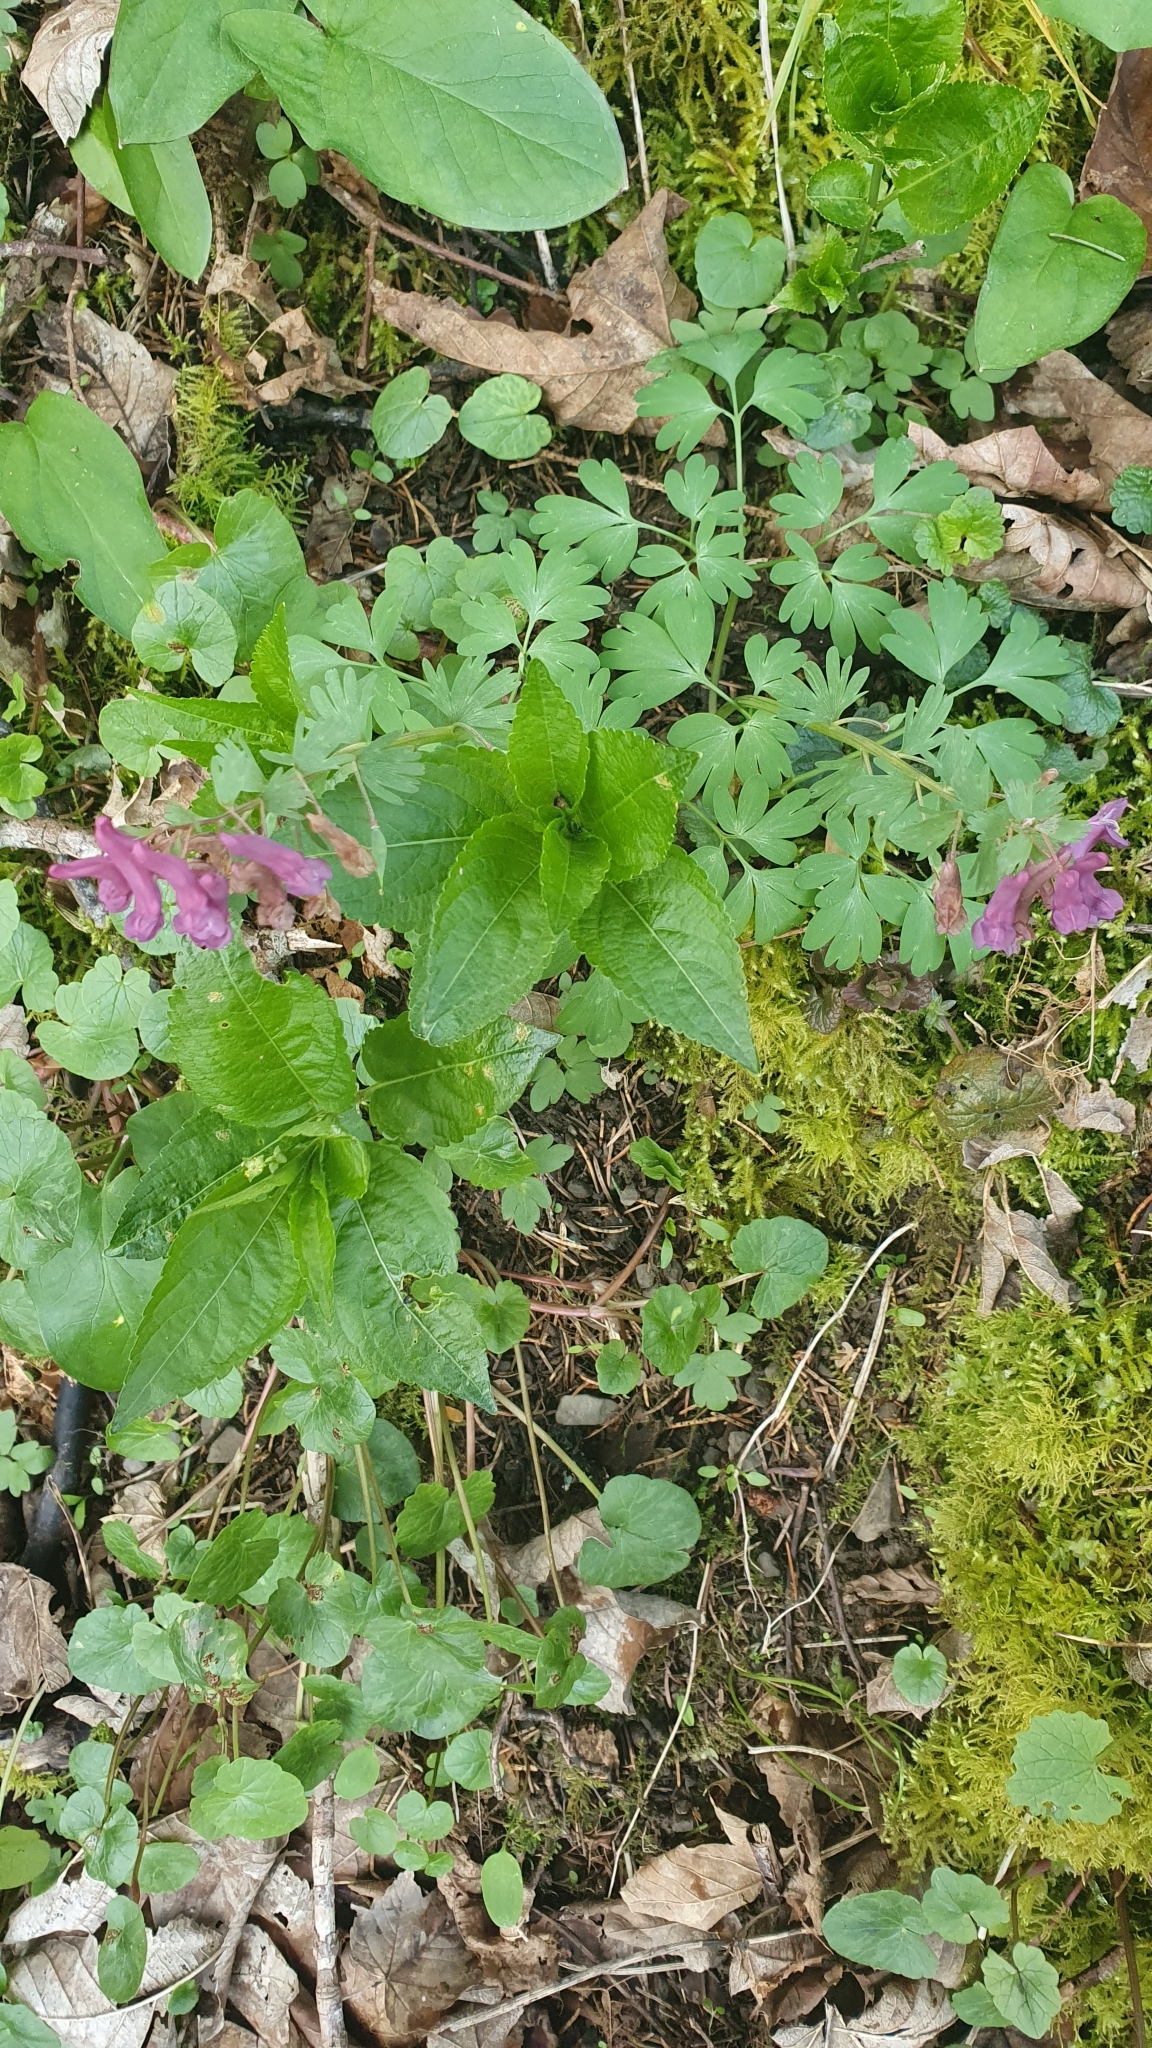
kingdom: Plantae
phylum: Tracheophyta
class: Magnoliopsida
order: Ranunculales
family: Papaveraceae
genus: Corydalis
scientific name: Corydalis solida
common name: Bird-in-a-bush
